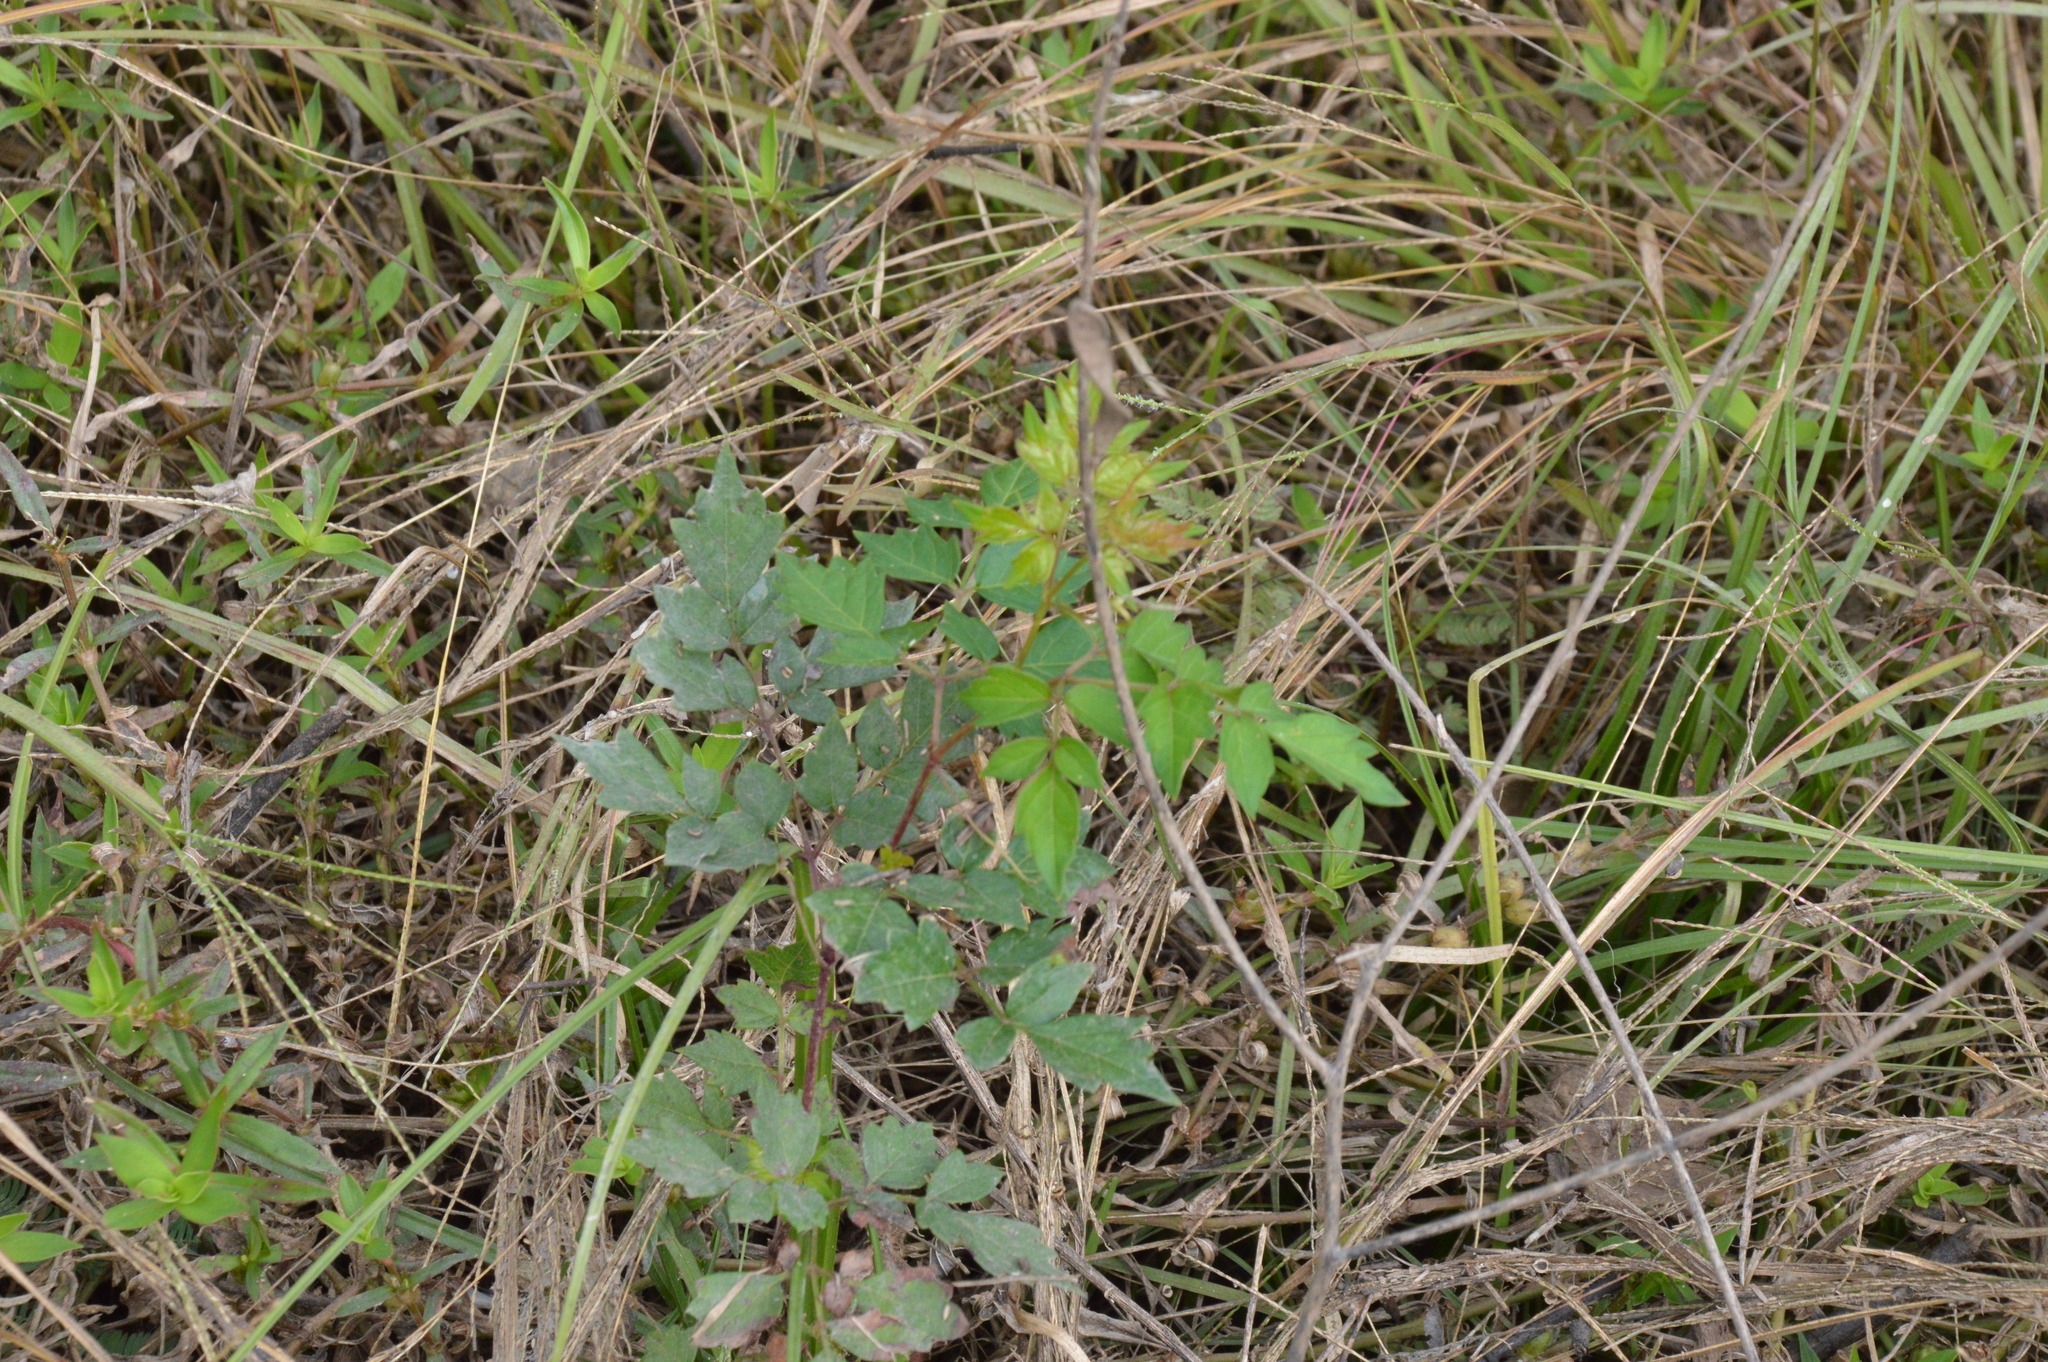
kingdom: Plantae
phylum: Tracheophyta
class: Magnoliopsida
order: Vitales
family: Vitaceae
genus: Nekemias
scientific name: Nekemias arborea
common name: Peppervine
